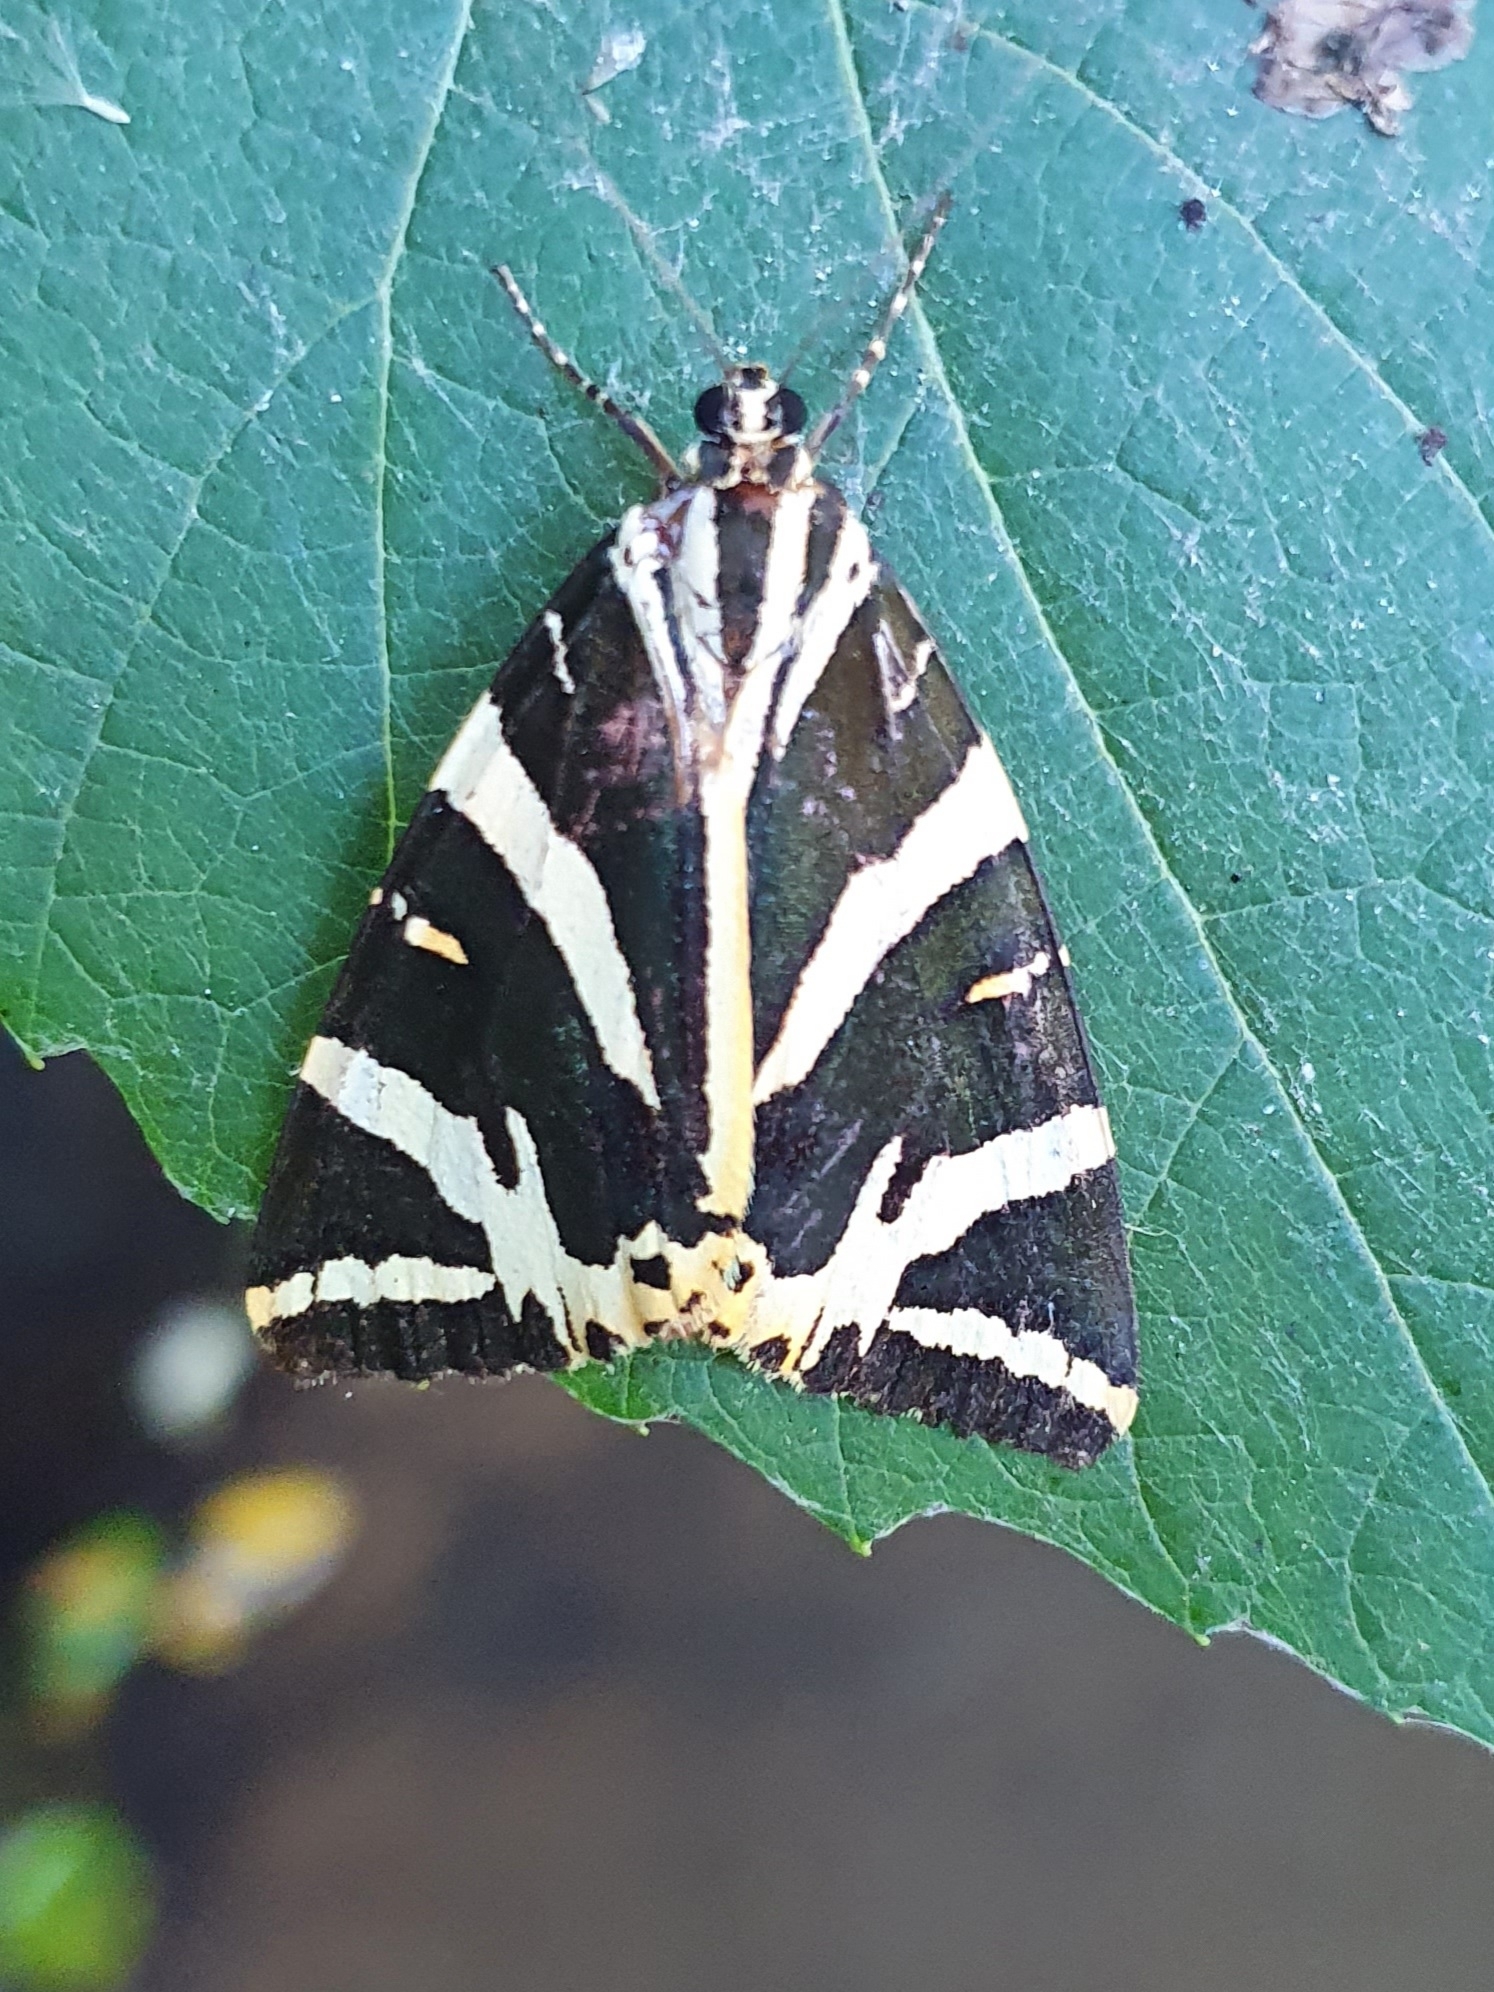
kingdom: Animalia
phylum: Arthropoda
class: Insecta
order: Lepidoptera
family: Erebidae
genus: Euplagia
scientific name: Euplagia quadripunctaria
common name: Jersey tiger
